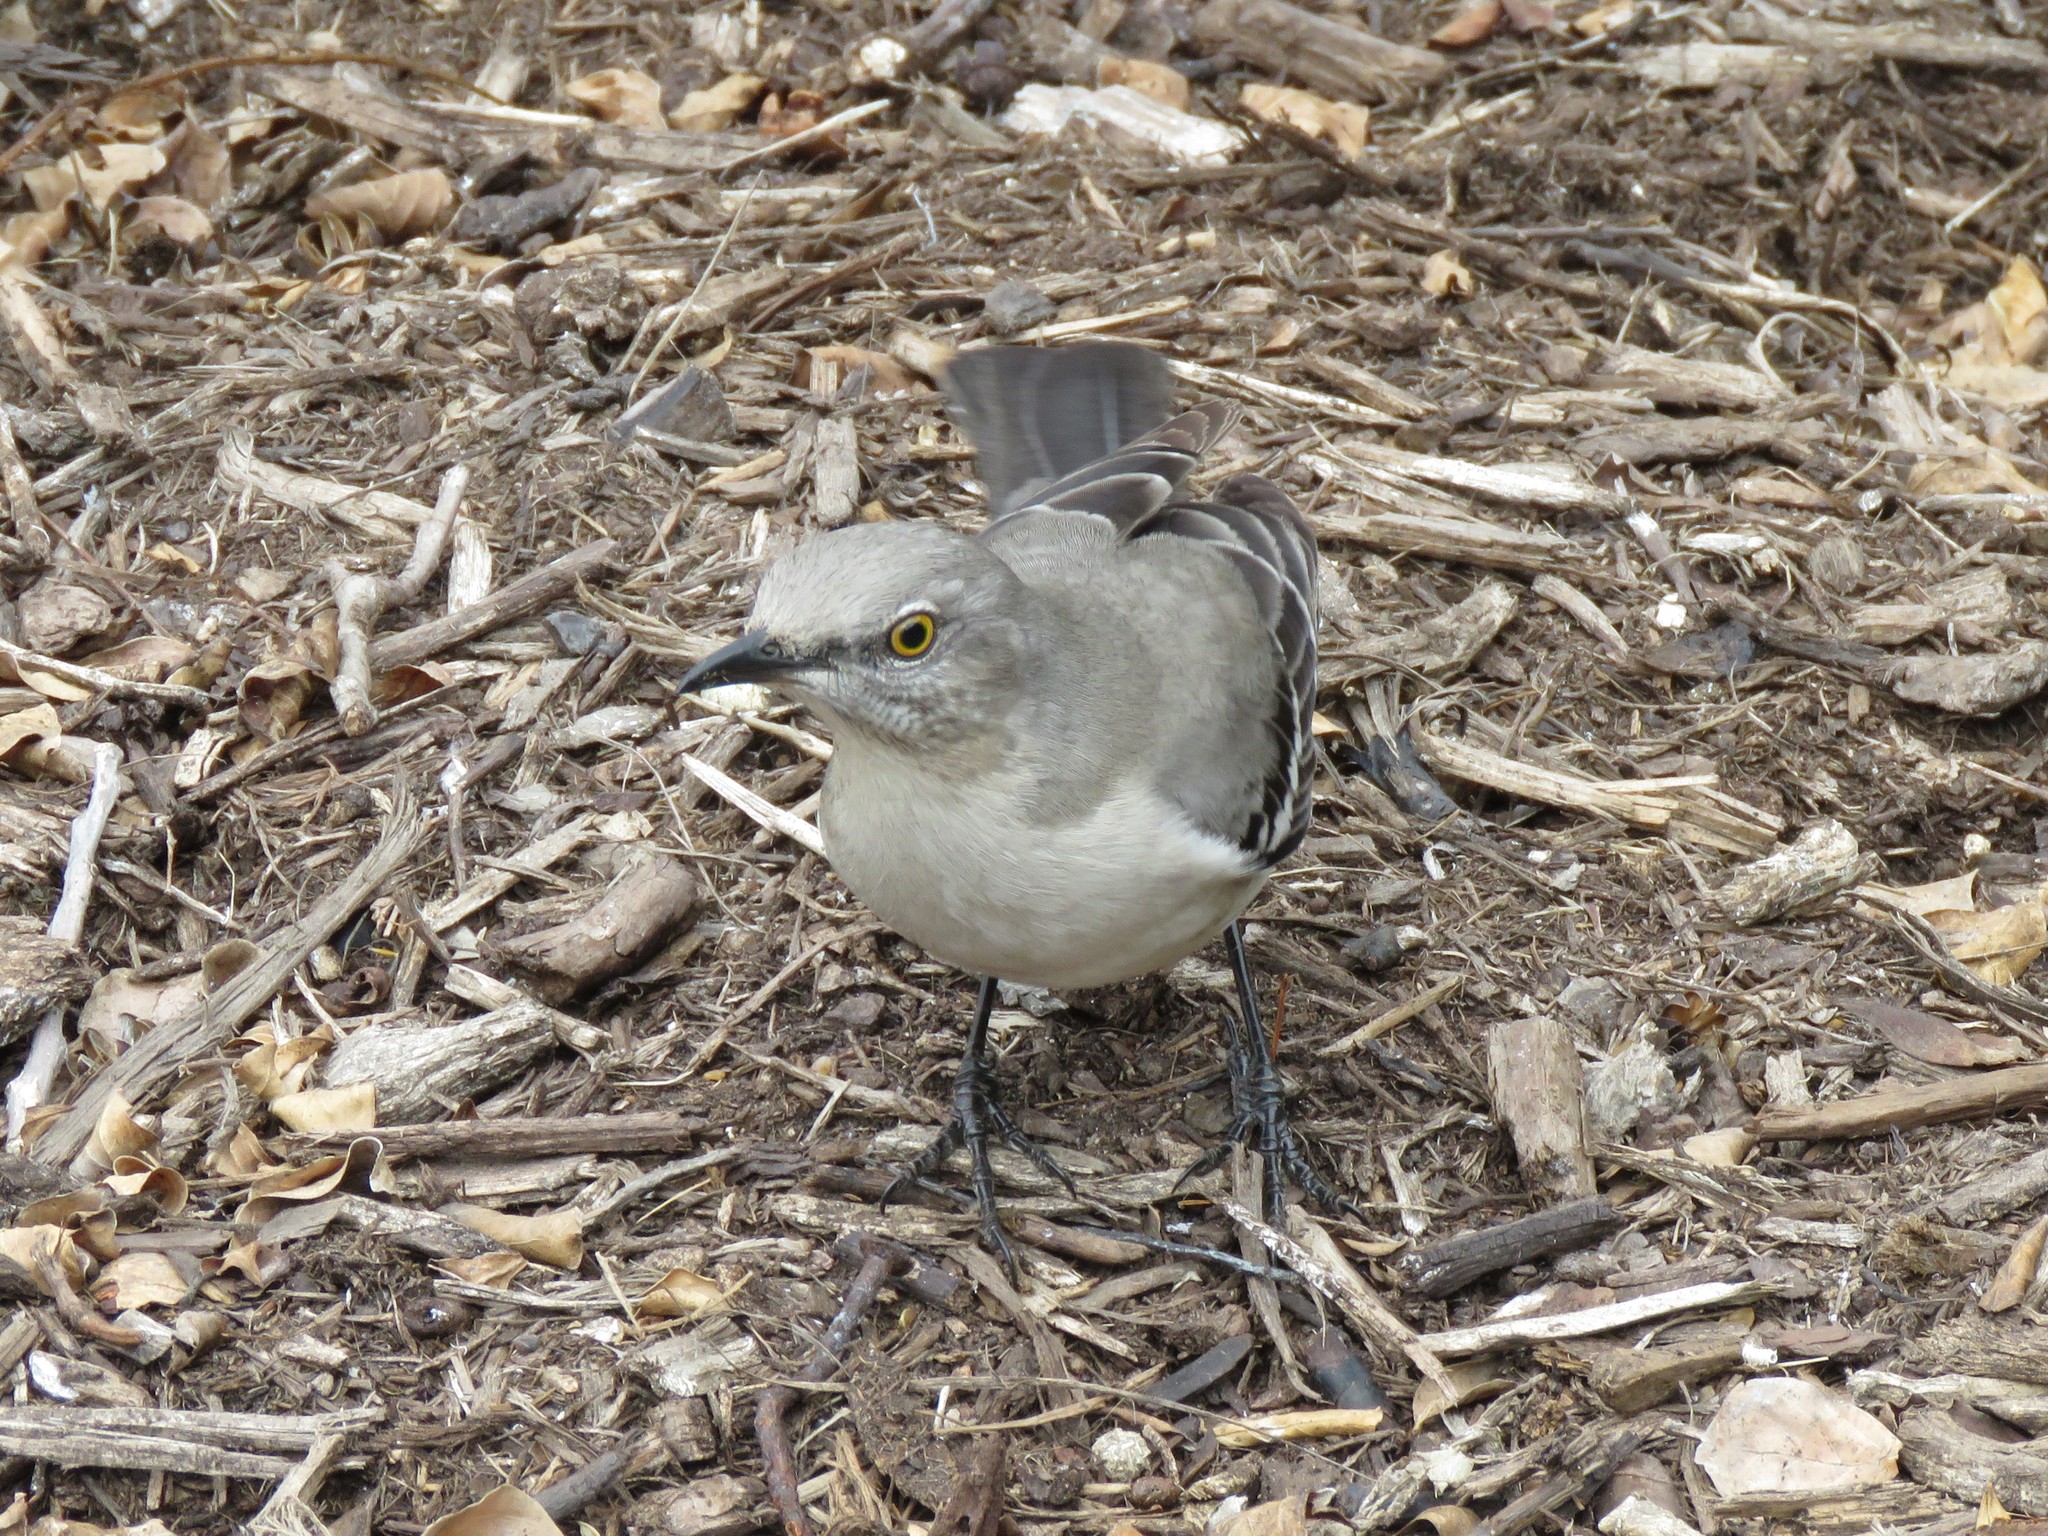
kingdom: Animalia
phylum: Chordata
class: Aves
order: Passeriformes
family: Mimidae
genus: Mimus
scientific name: Mimus polyglottos
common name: Northern mockingbird
